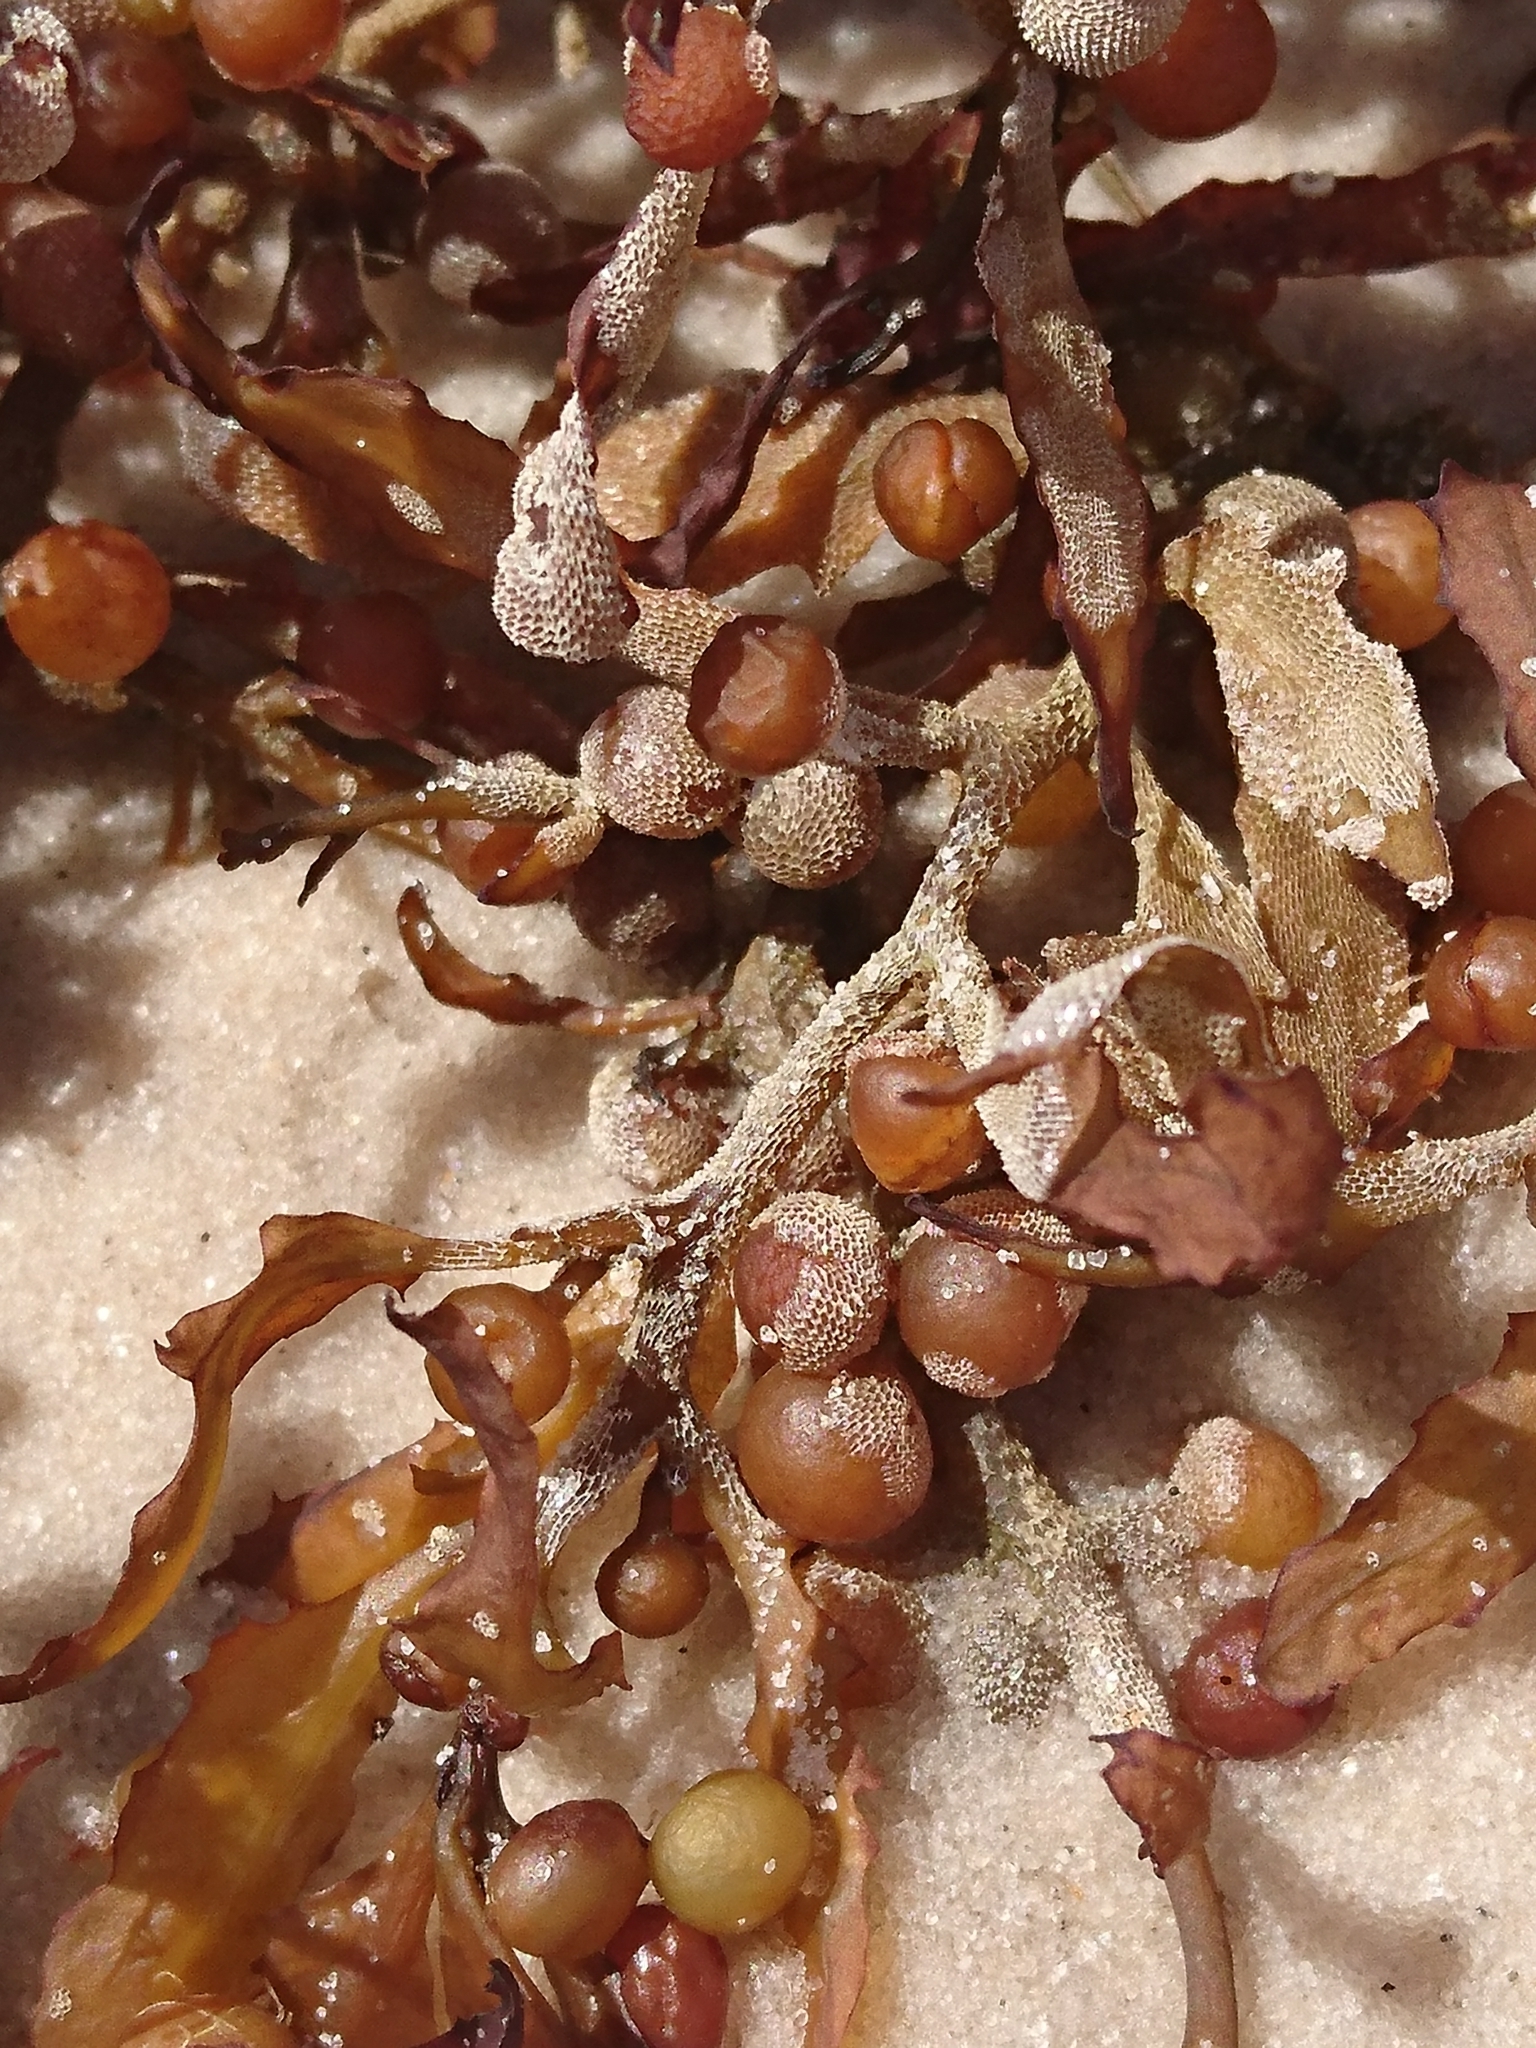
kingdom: Chromista
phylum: Ochrophyta
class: Phaeophyceae
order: Fucales
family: Sargassaceae
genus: Sargassum
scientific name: Sargassum fluitans
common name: Sargassum seaweed
